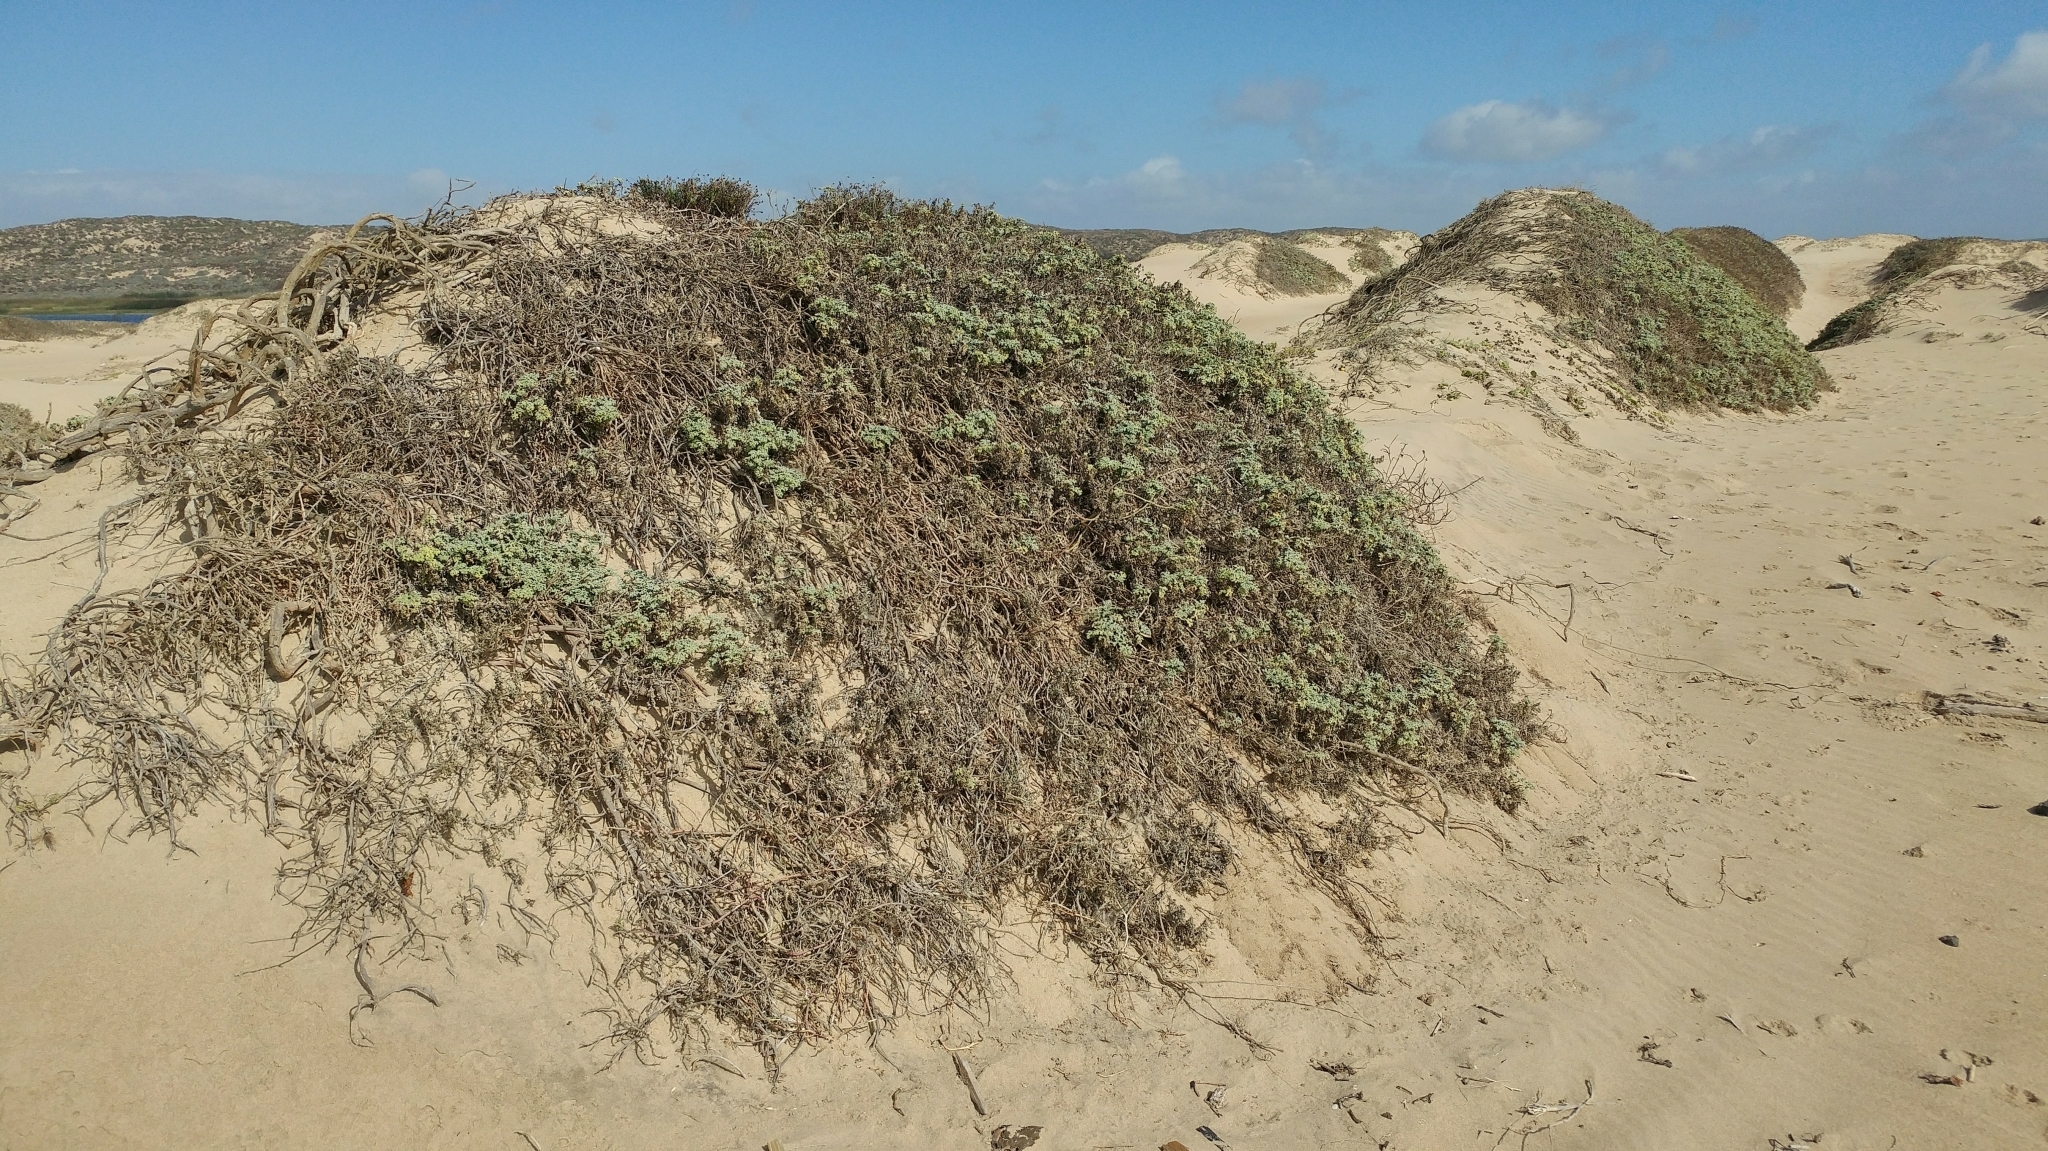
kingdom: Plantae
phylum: Tracheophyta
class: Magnoliopsida
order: Asterales
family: Asteraceae
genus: Ambrosia
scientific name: Ambrosia chamissonis
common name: Beachbur
